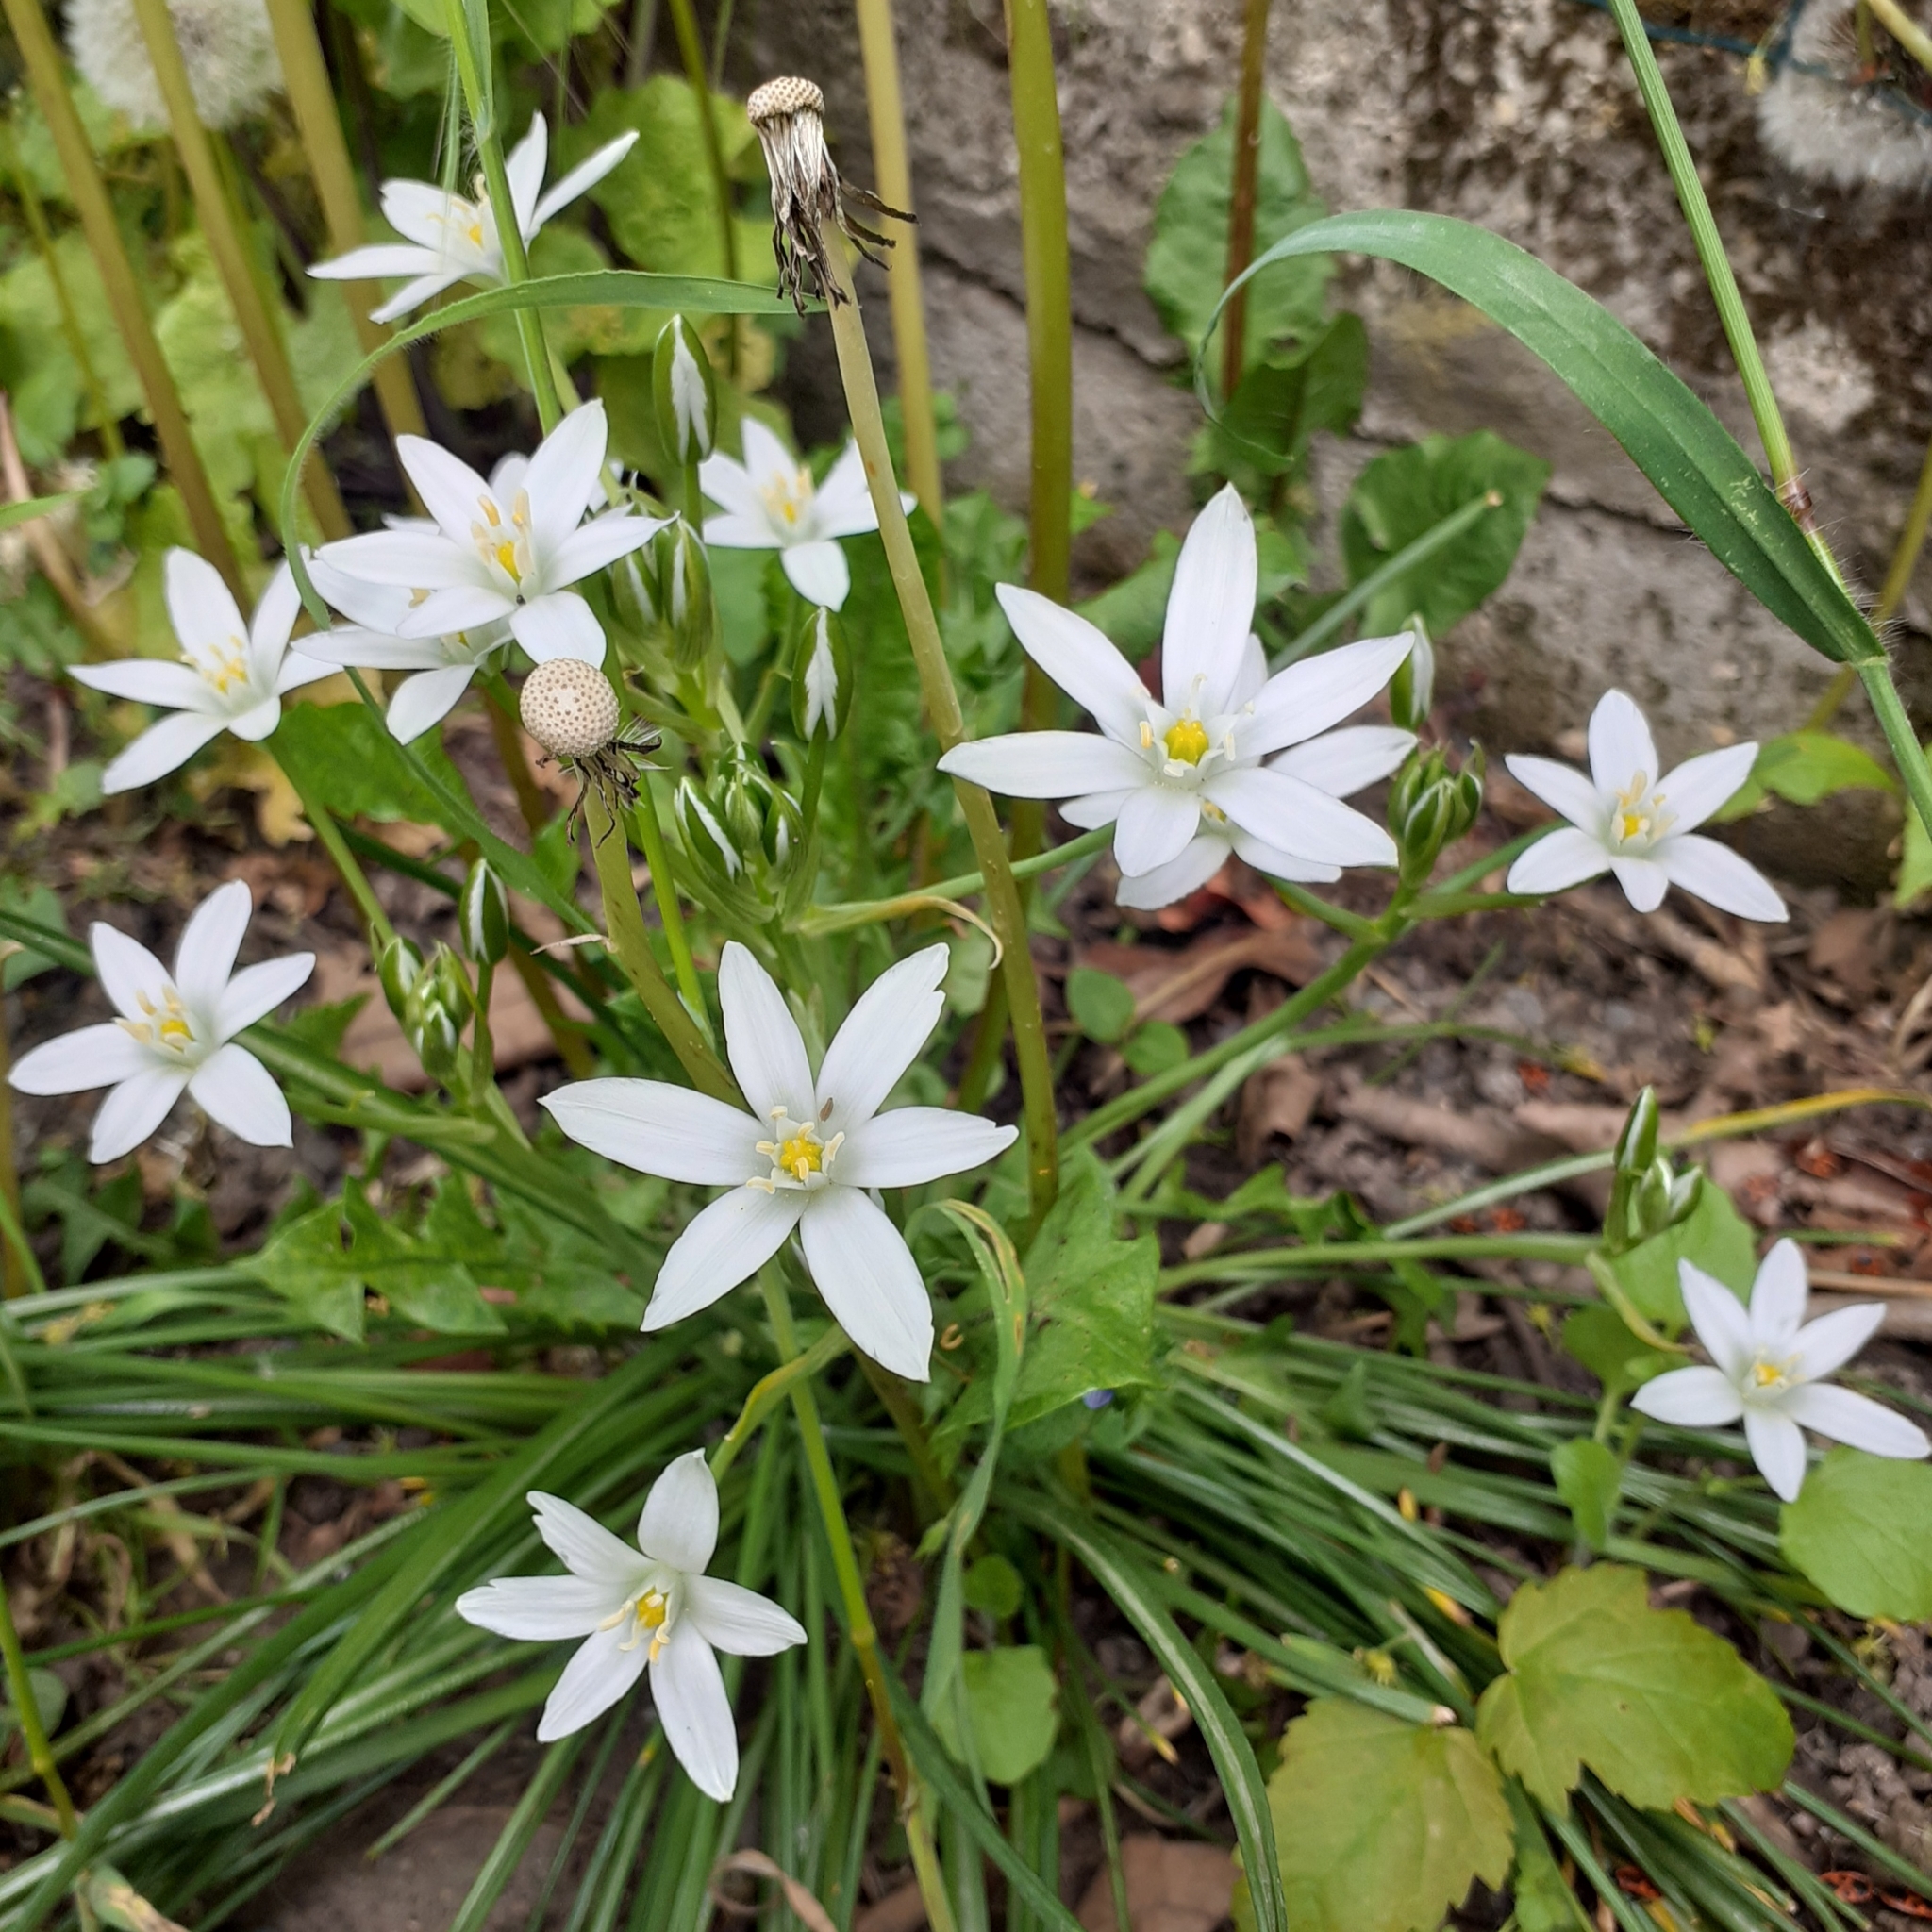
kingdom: Plantae
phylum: Tracheophyta
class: Liliopsida
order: Asparagales
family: Asparagaceae
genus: Ornithogalum
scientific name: Ornithogalum umbellatum
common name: Garden star-of-bethlehem
